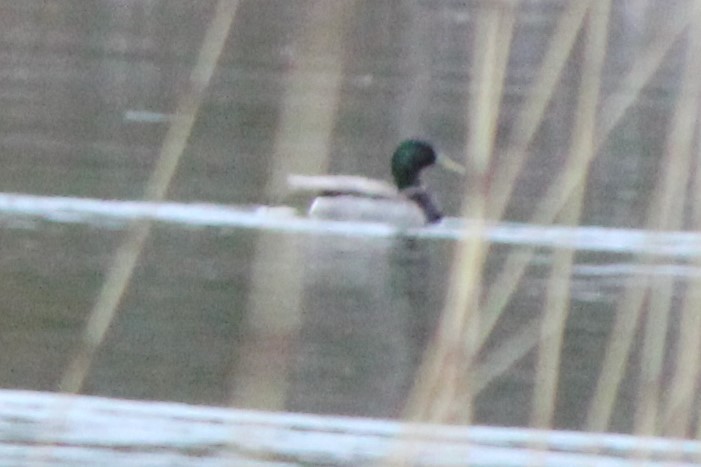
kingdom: Animalia
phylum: Chordata
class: Aves
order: Anseriformes
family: Anatidae
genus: Anas
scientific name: Anas platyrhynchos
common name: Mallard
